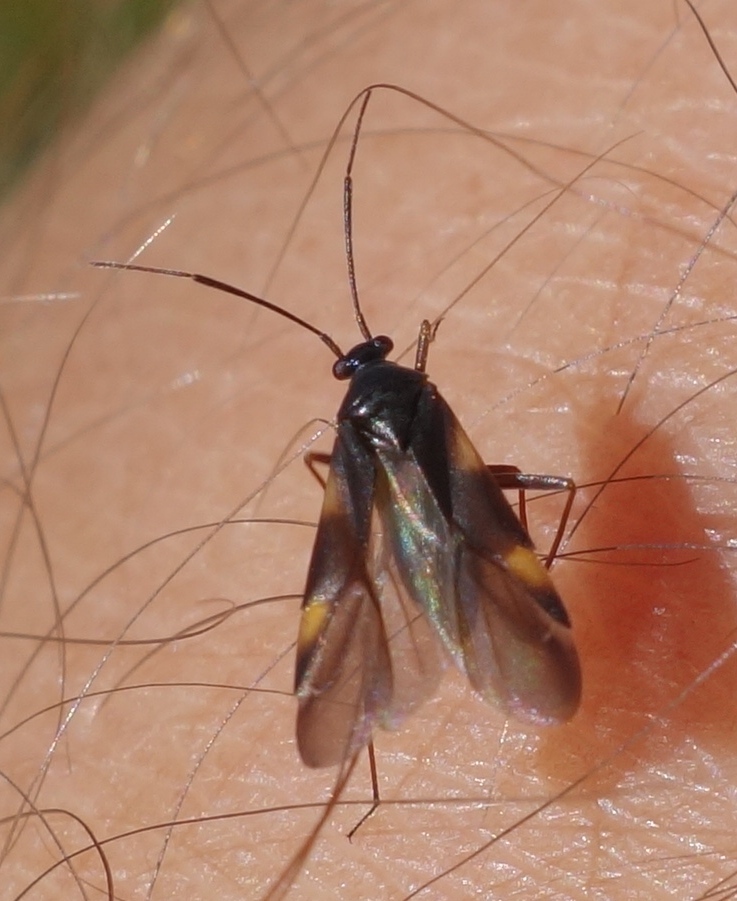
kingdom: Animalia
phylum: Arthropoda
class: Insecta
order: Hemiptera
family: Miridae
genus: Dryophilocoris
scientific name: Dryophilocoris flavoquadrimaculatus
